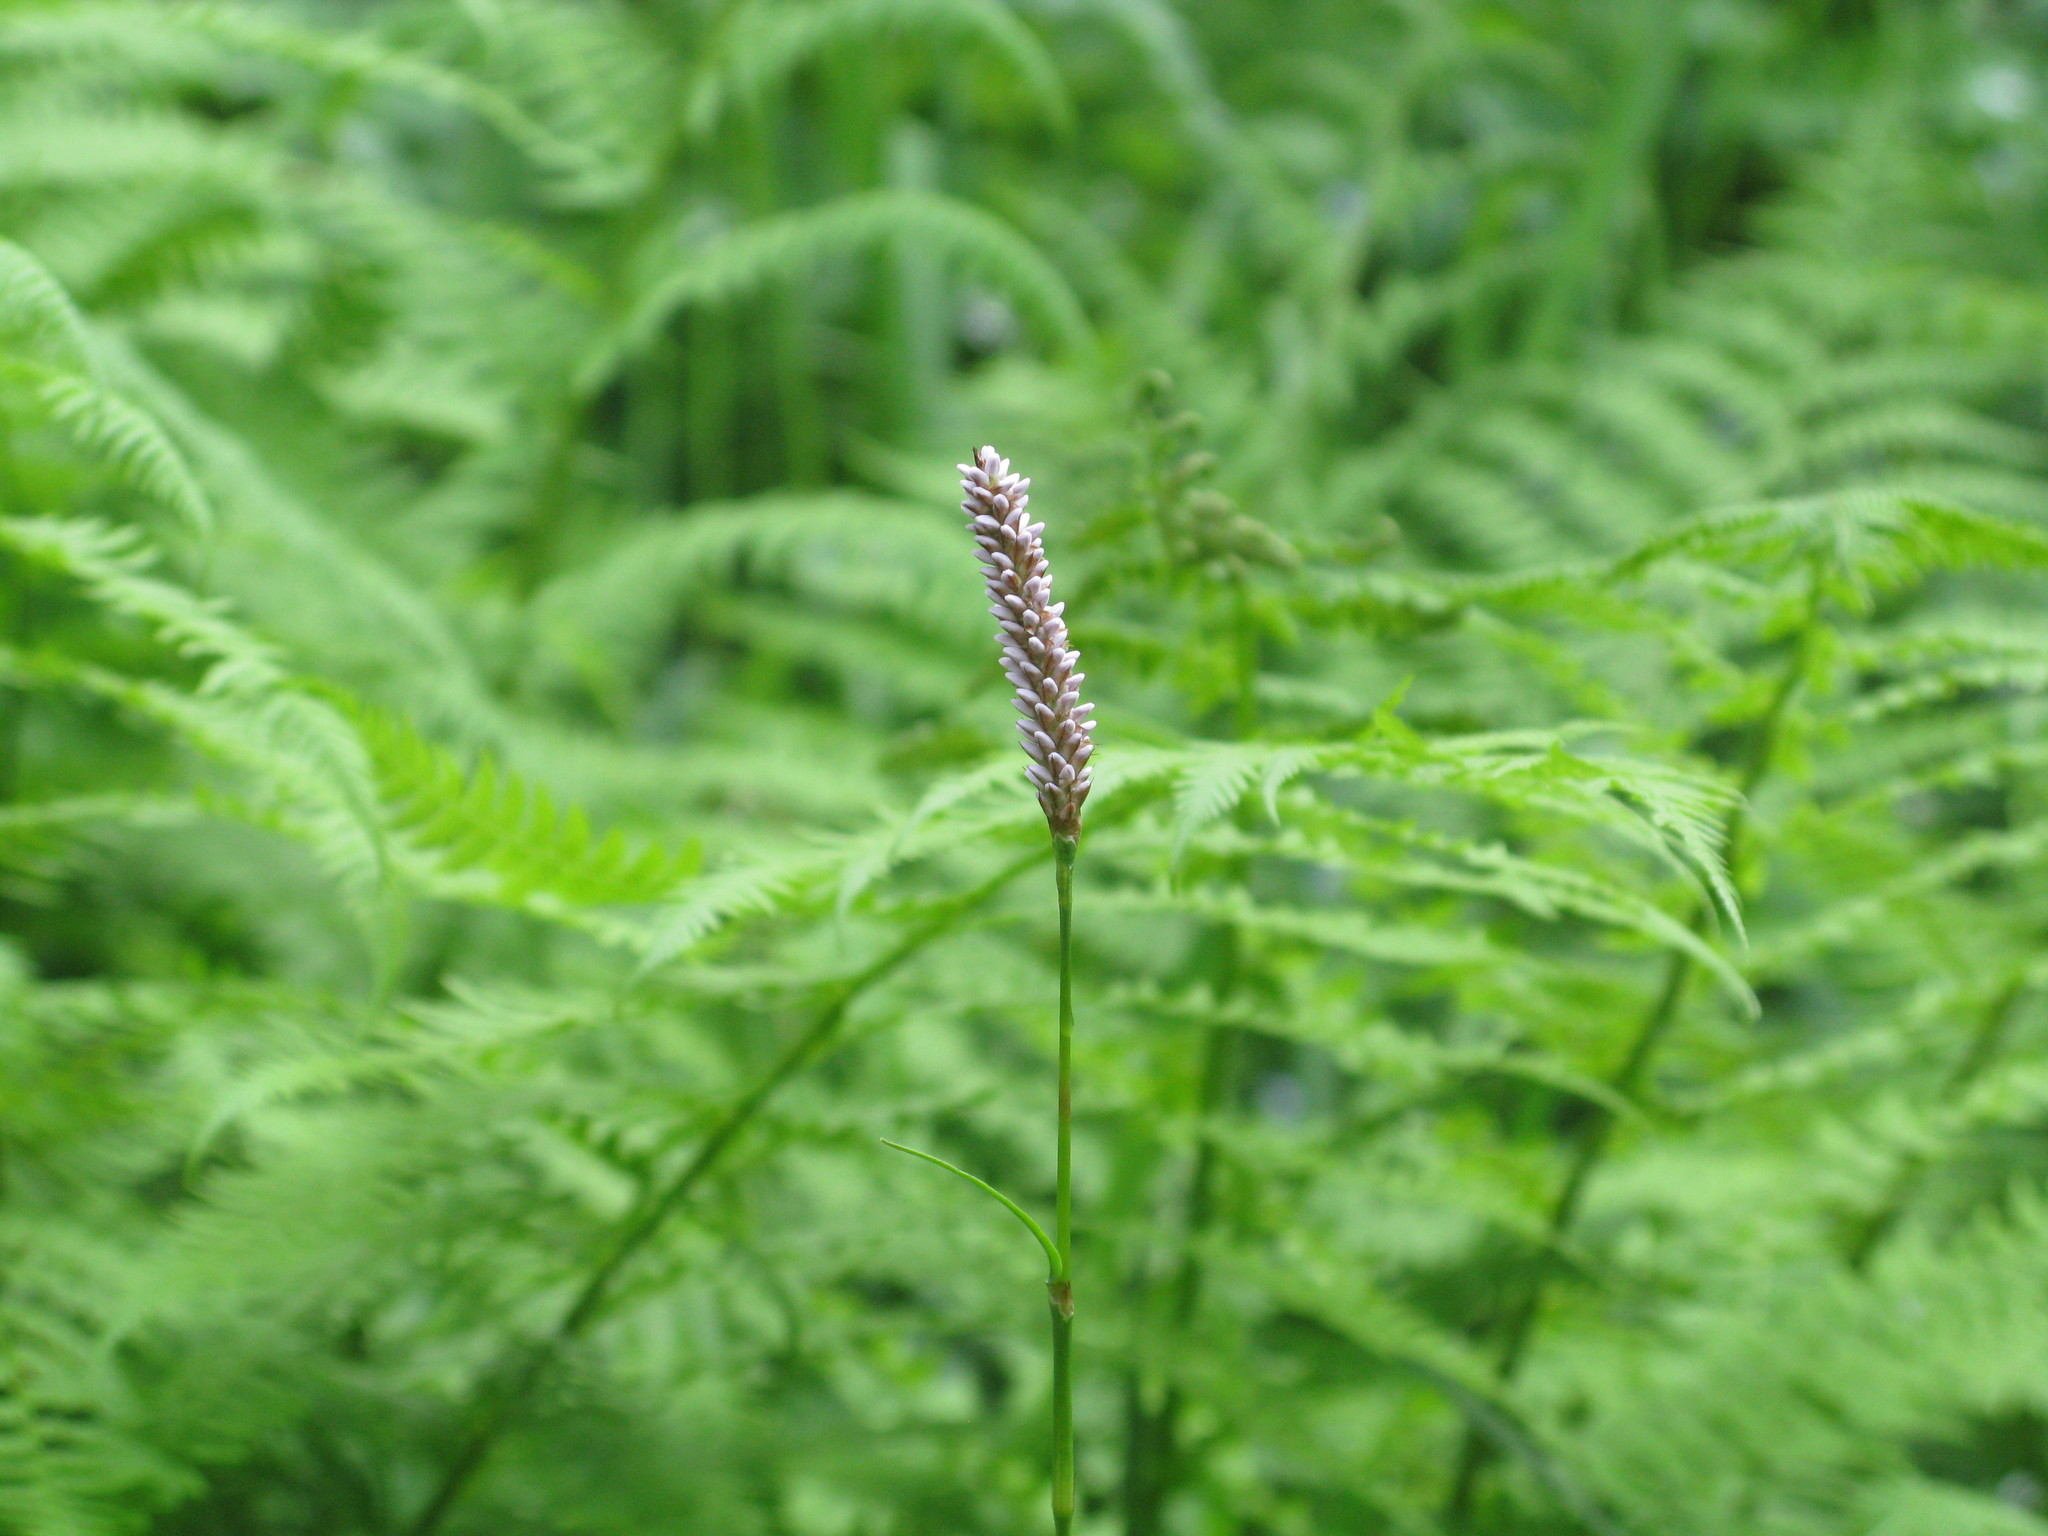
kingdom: Plantae
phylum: Tracheophyta
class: Magnoliopsida
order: Caryophyllales
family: Polygonaceae
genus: Bistorta
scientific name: Bistorta officinalis
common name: Common bistort
